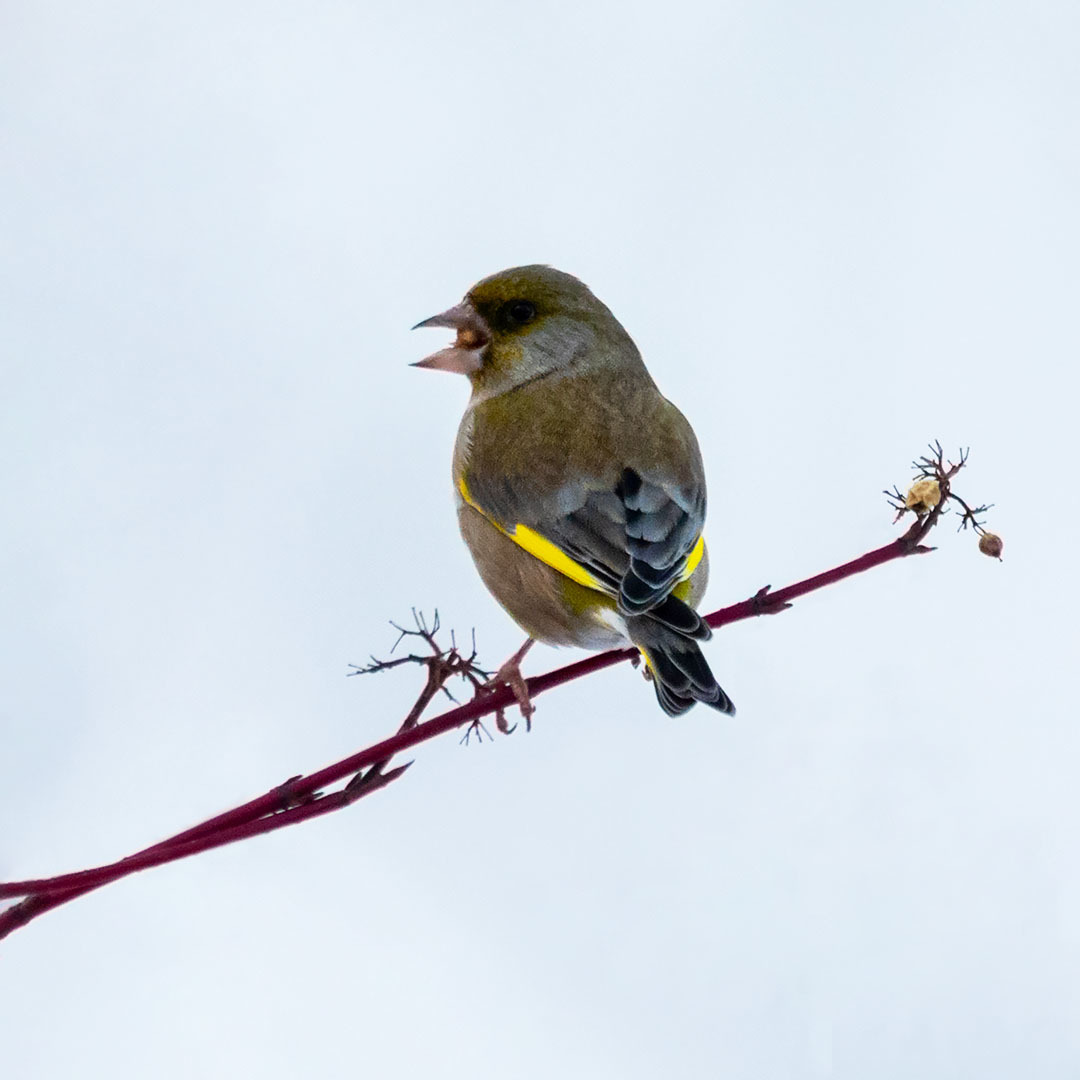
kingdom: Plantae
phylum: Tracheophyta
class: Liliopsida
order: Poales
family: Poaceae
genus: Chloris
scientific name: Chloris chloris
